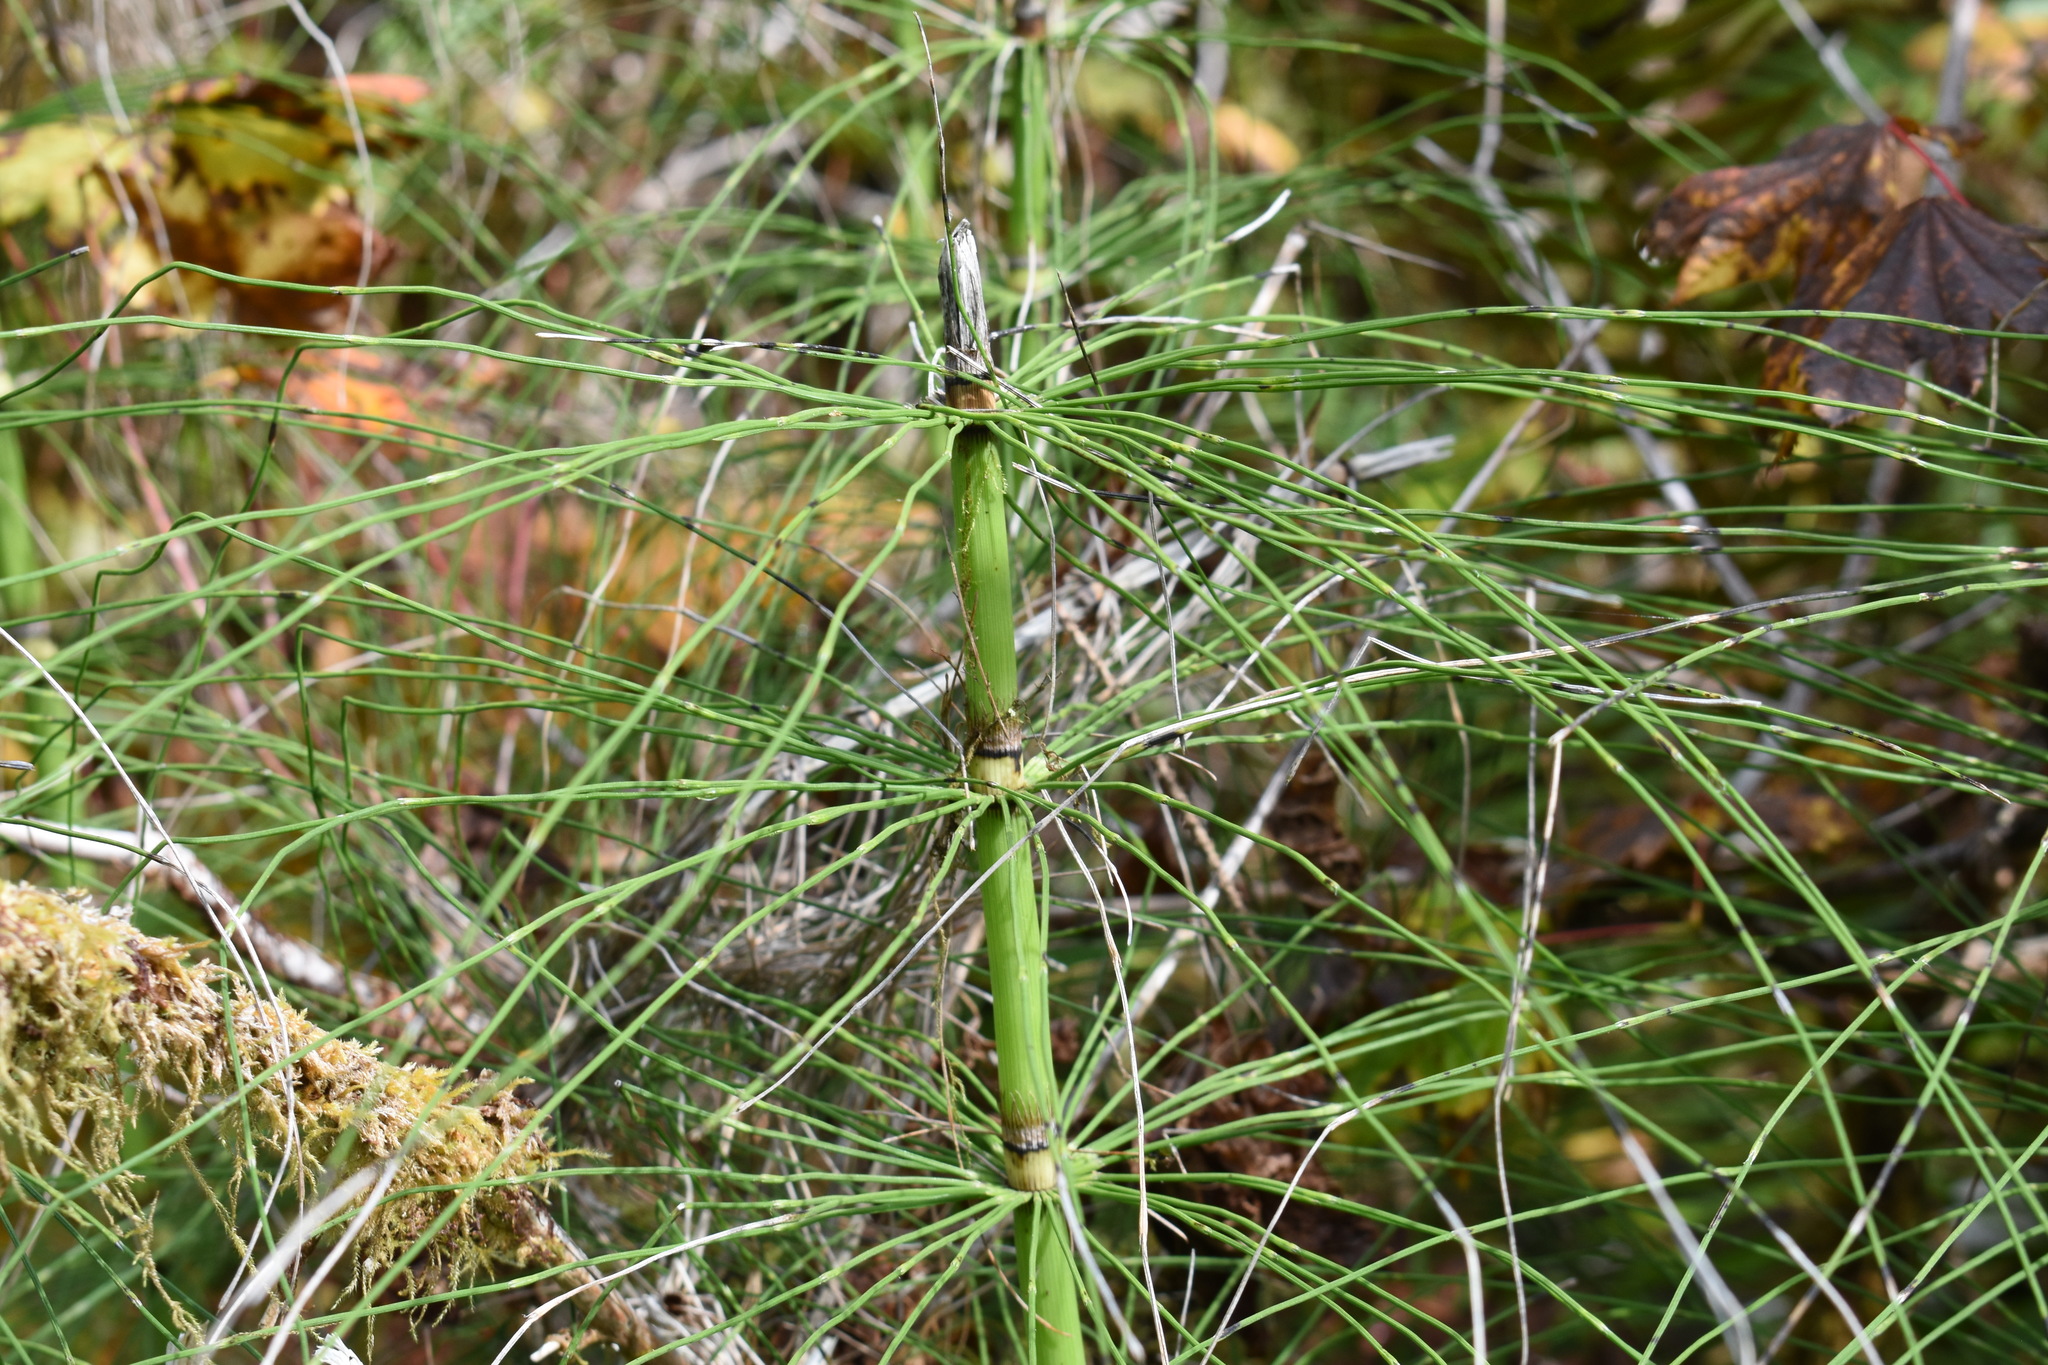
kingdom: Plantae
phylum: Tracheophyta
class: Polypodiopsida
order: Equisetales
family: Equisetaceae
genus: Equisetum
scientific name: Equisetum braunii
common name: Braun's horsetail
